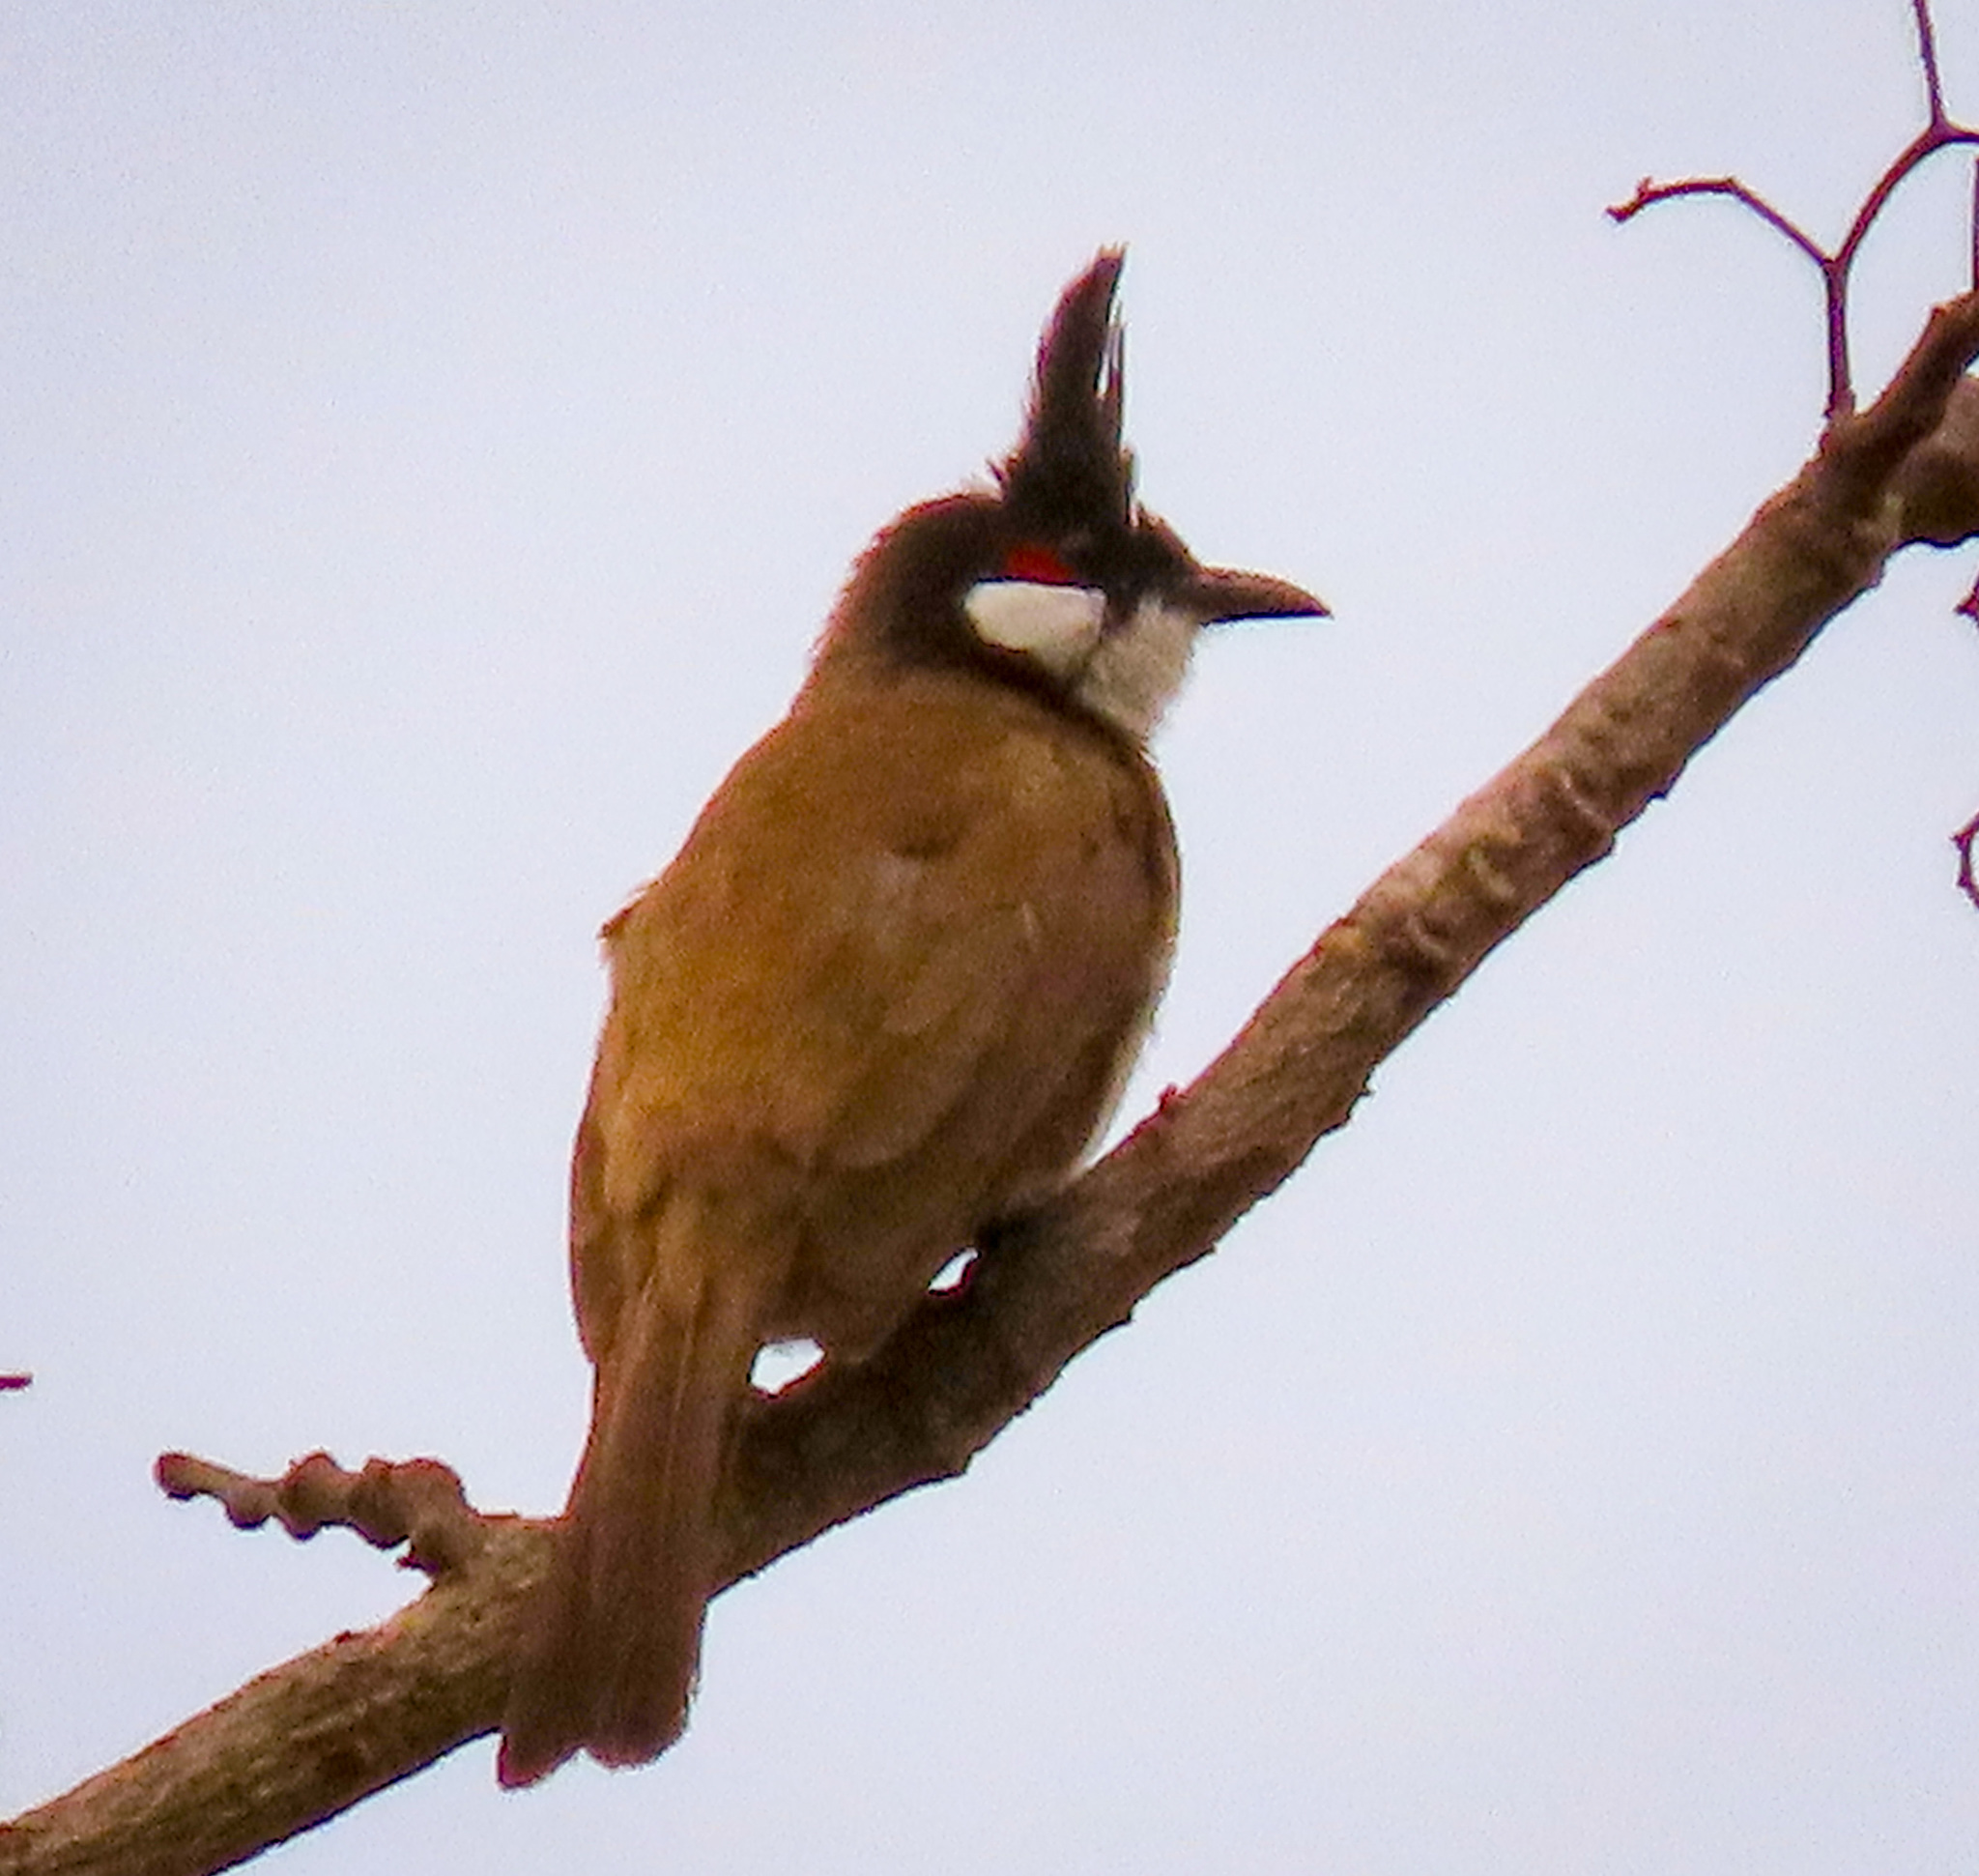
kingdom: Animalia
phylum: Chordata
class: Aves
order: Passeriformes
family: Pycnonotidae
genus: Pycnonotus
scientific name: Pycnonotus jocosus
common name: Red-whiskered bulbul
